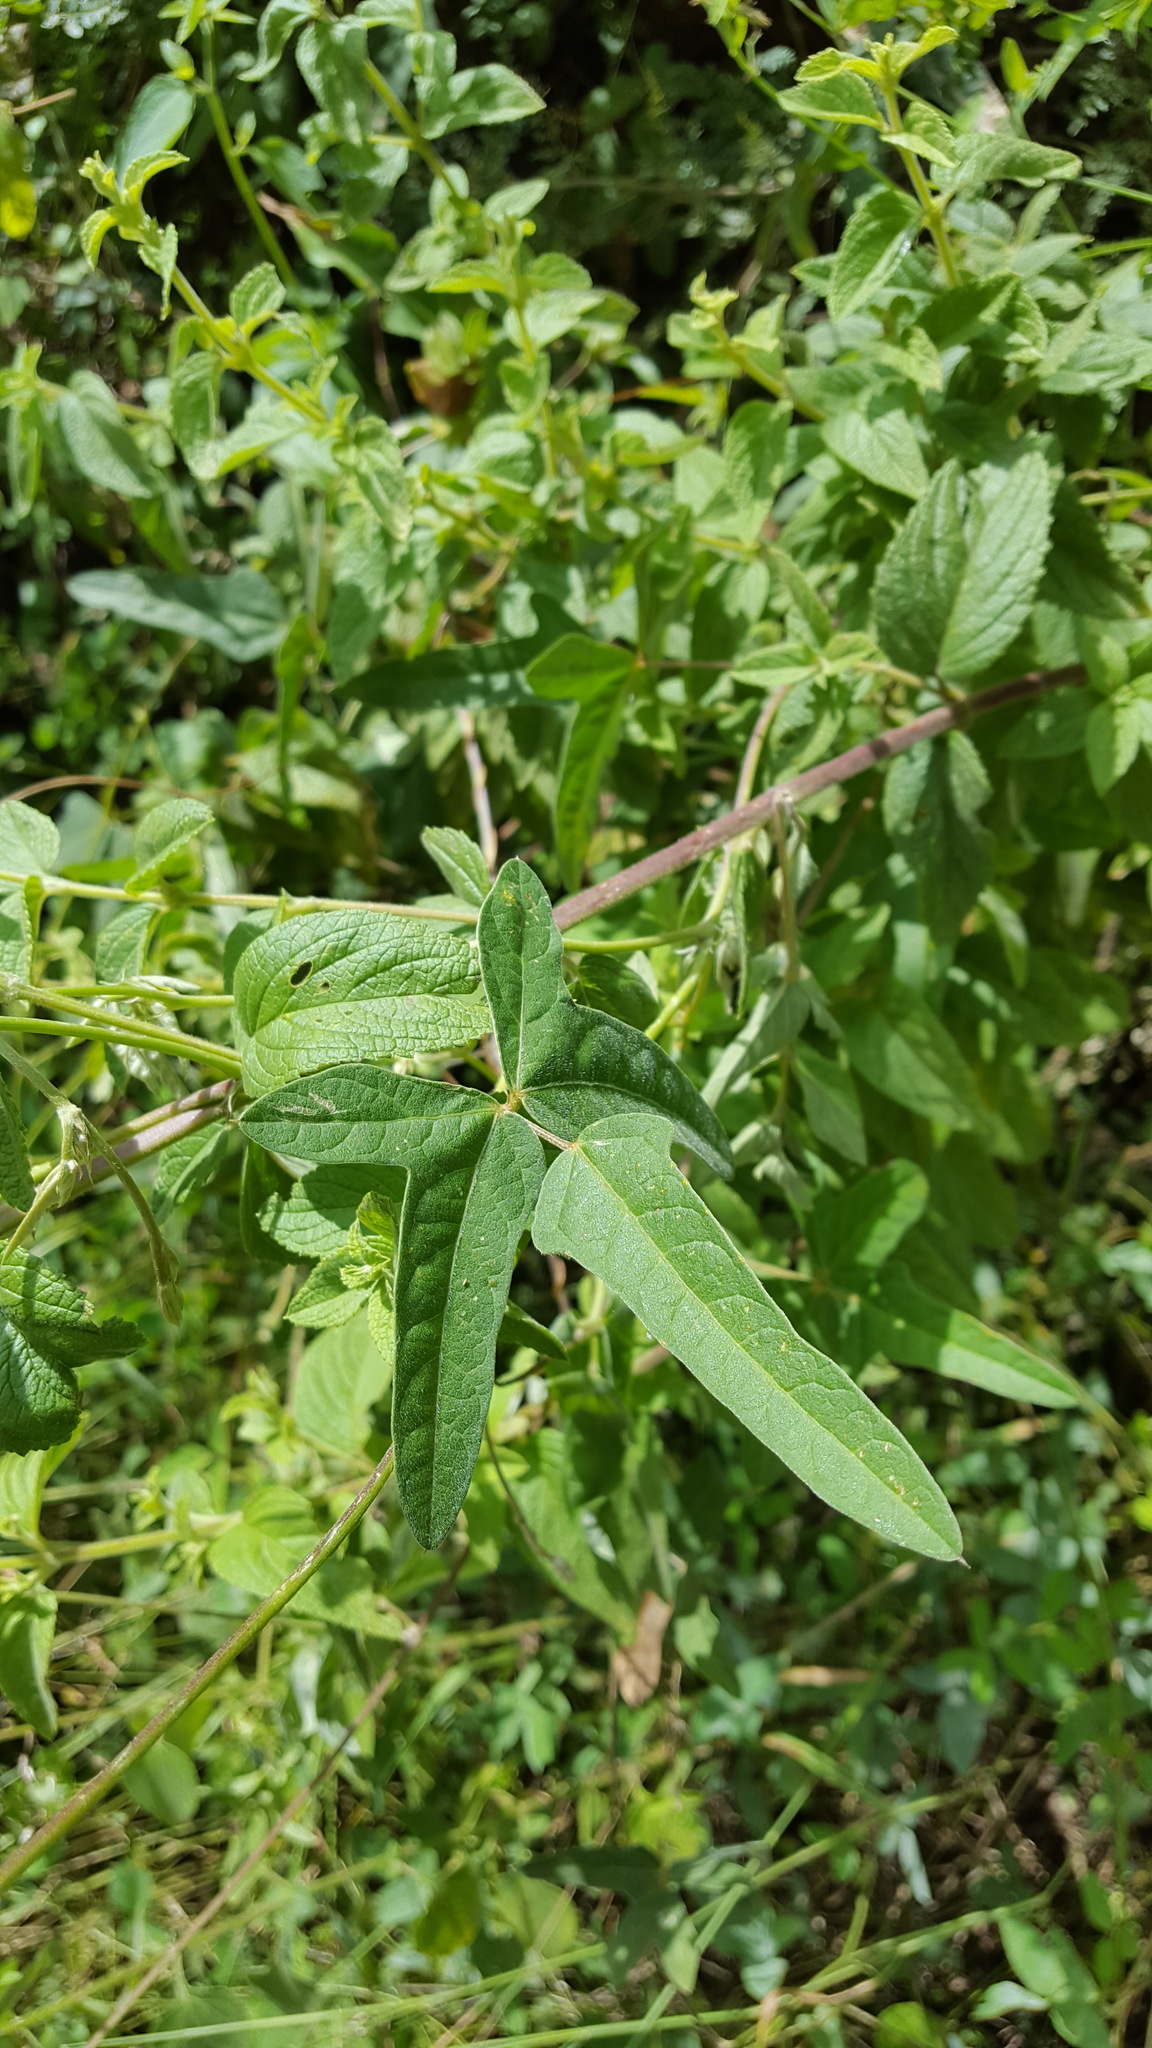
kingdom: Plantae
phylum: Tracheophyta
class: Magnoliopsida
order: Fabales
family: Fabaceae
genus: Macroptilium
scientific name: Macroptilium atropurpureum
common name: Purple bushbean
